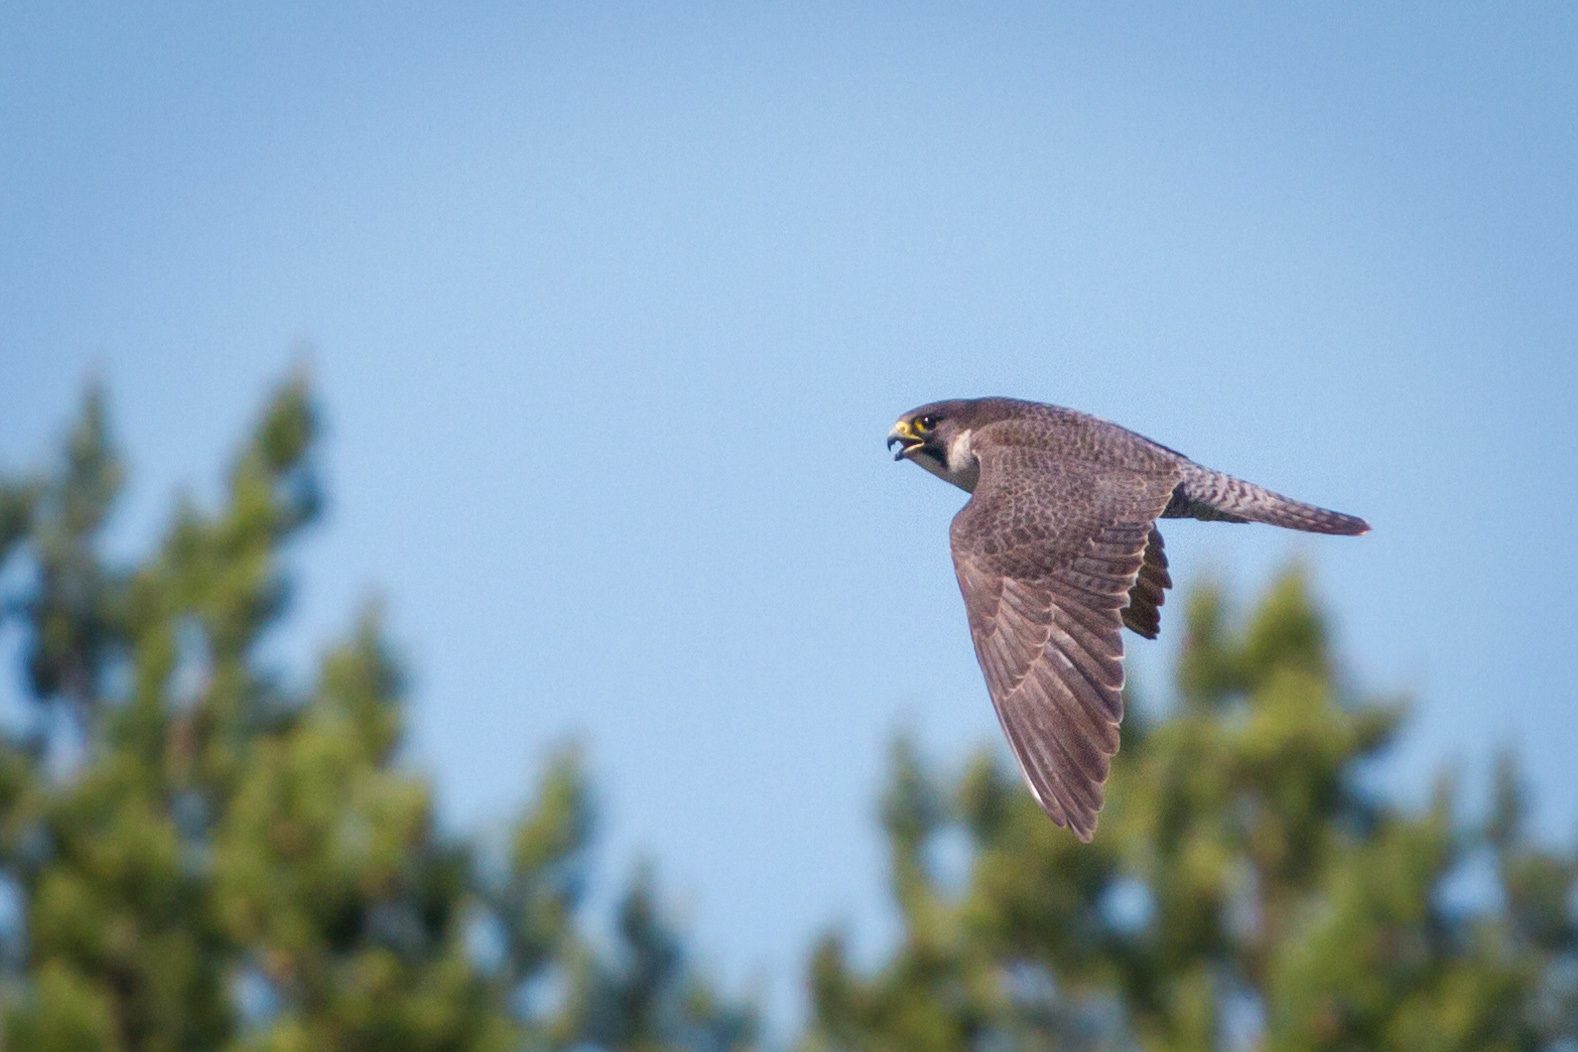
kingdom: Animalia
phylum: Chordata
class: Aves
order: Falconiformes
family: Falconidae
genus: Falco
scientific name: Falco peregrinus
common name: Peregrine falcon
